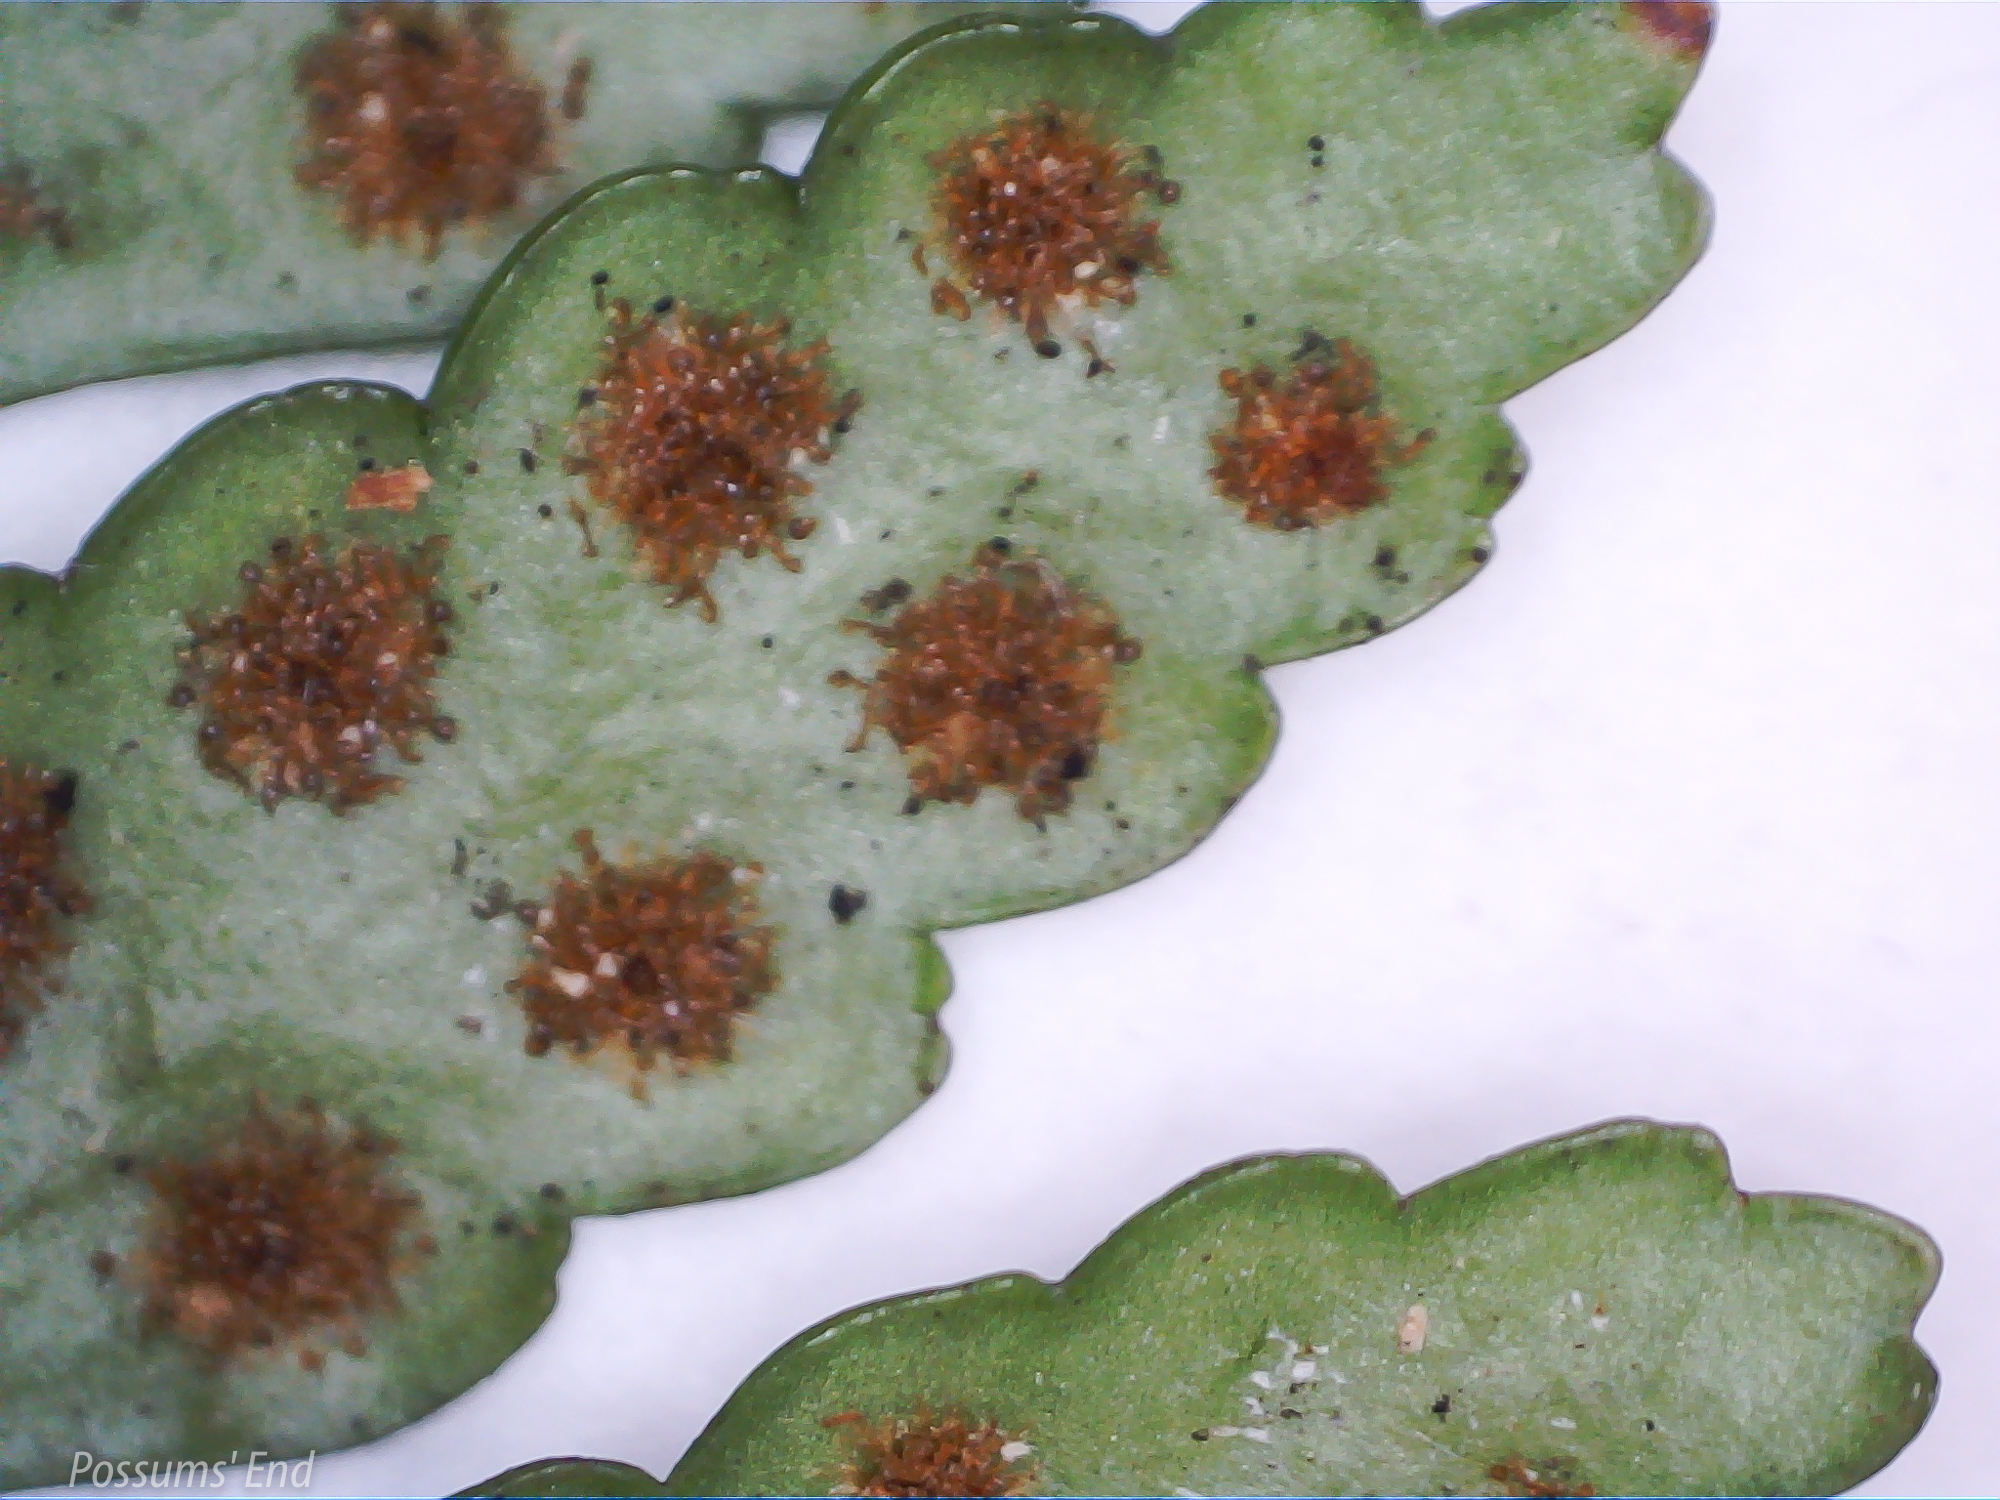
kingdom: Plantae
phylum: Tracheophyta
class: Polypodiopsida
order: Polypodiales
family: Dryopteridaceae
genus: Rumohra
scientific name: Rumohra adiantiformis
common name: Leather fern
